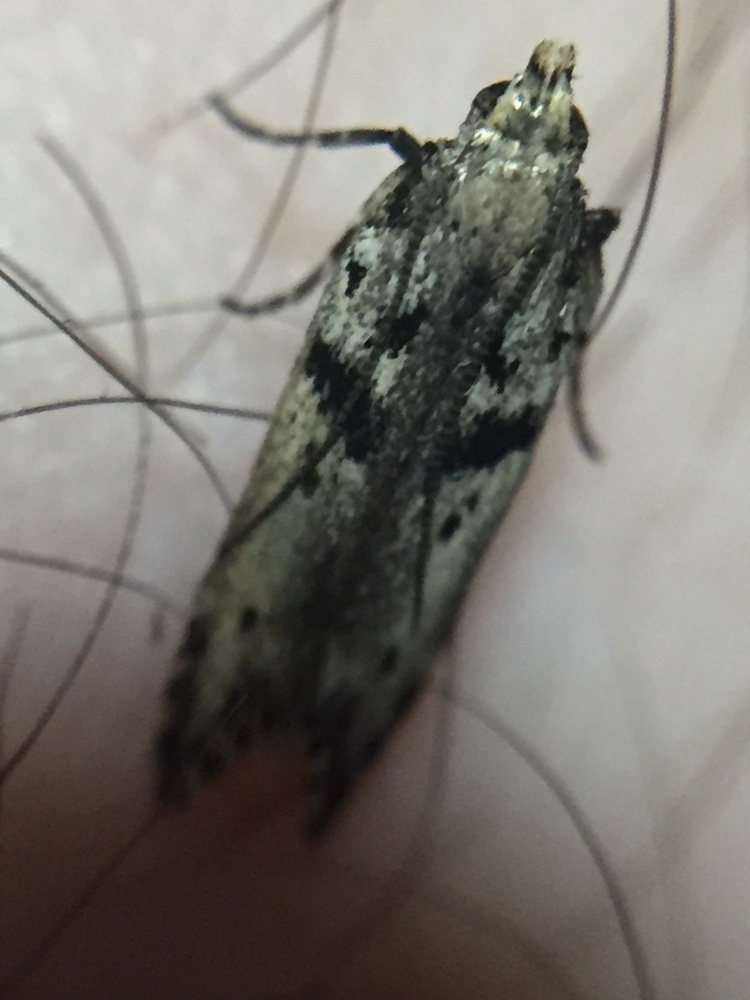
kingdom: Animalia
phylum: Arthropoda
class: Insecta
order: Lepidoptera
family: Gelechiidae
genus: Aristotelia
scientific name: Aristotelia paradesma
